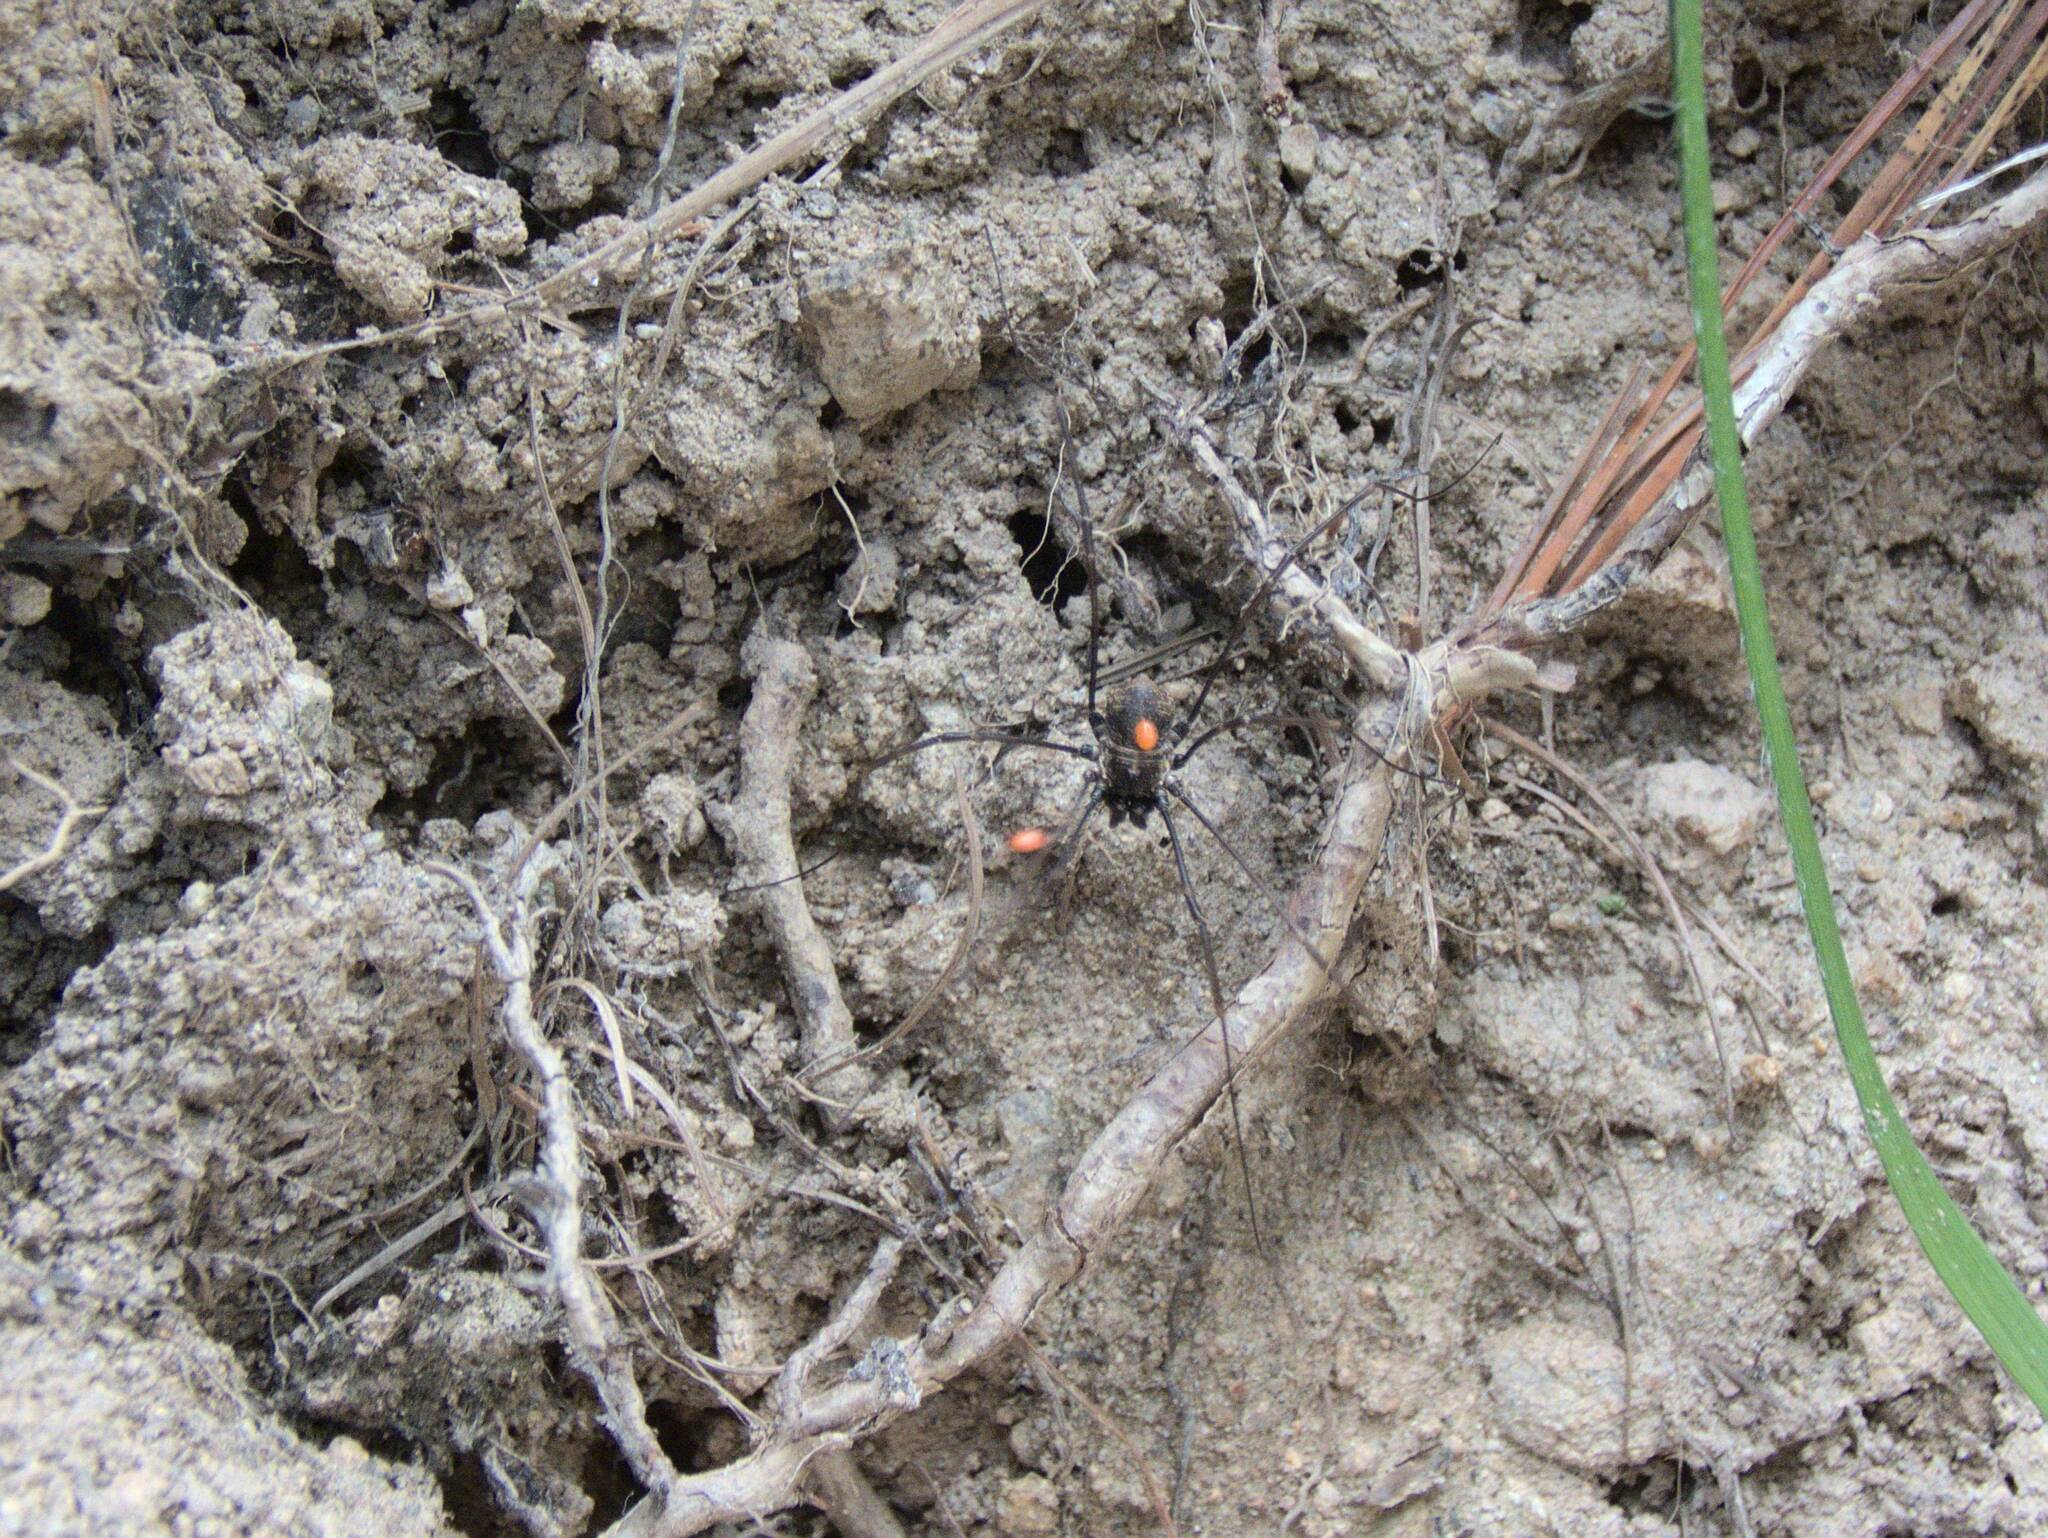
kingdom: Animalia
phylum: Arthropoda
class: Arachnida
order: Opiliones
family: Phalangiidae
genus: Dasylobus
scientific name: Dasylobus graniferus
